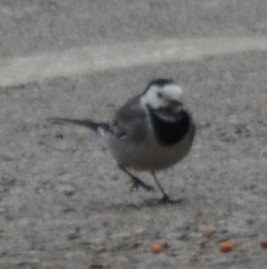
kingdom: Animalia
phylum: Chordata
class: Aves
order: Passeriformes
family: Motacillidae
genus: Motacilla
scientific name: Motacilla alba
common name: White wagtail
